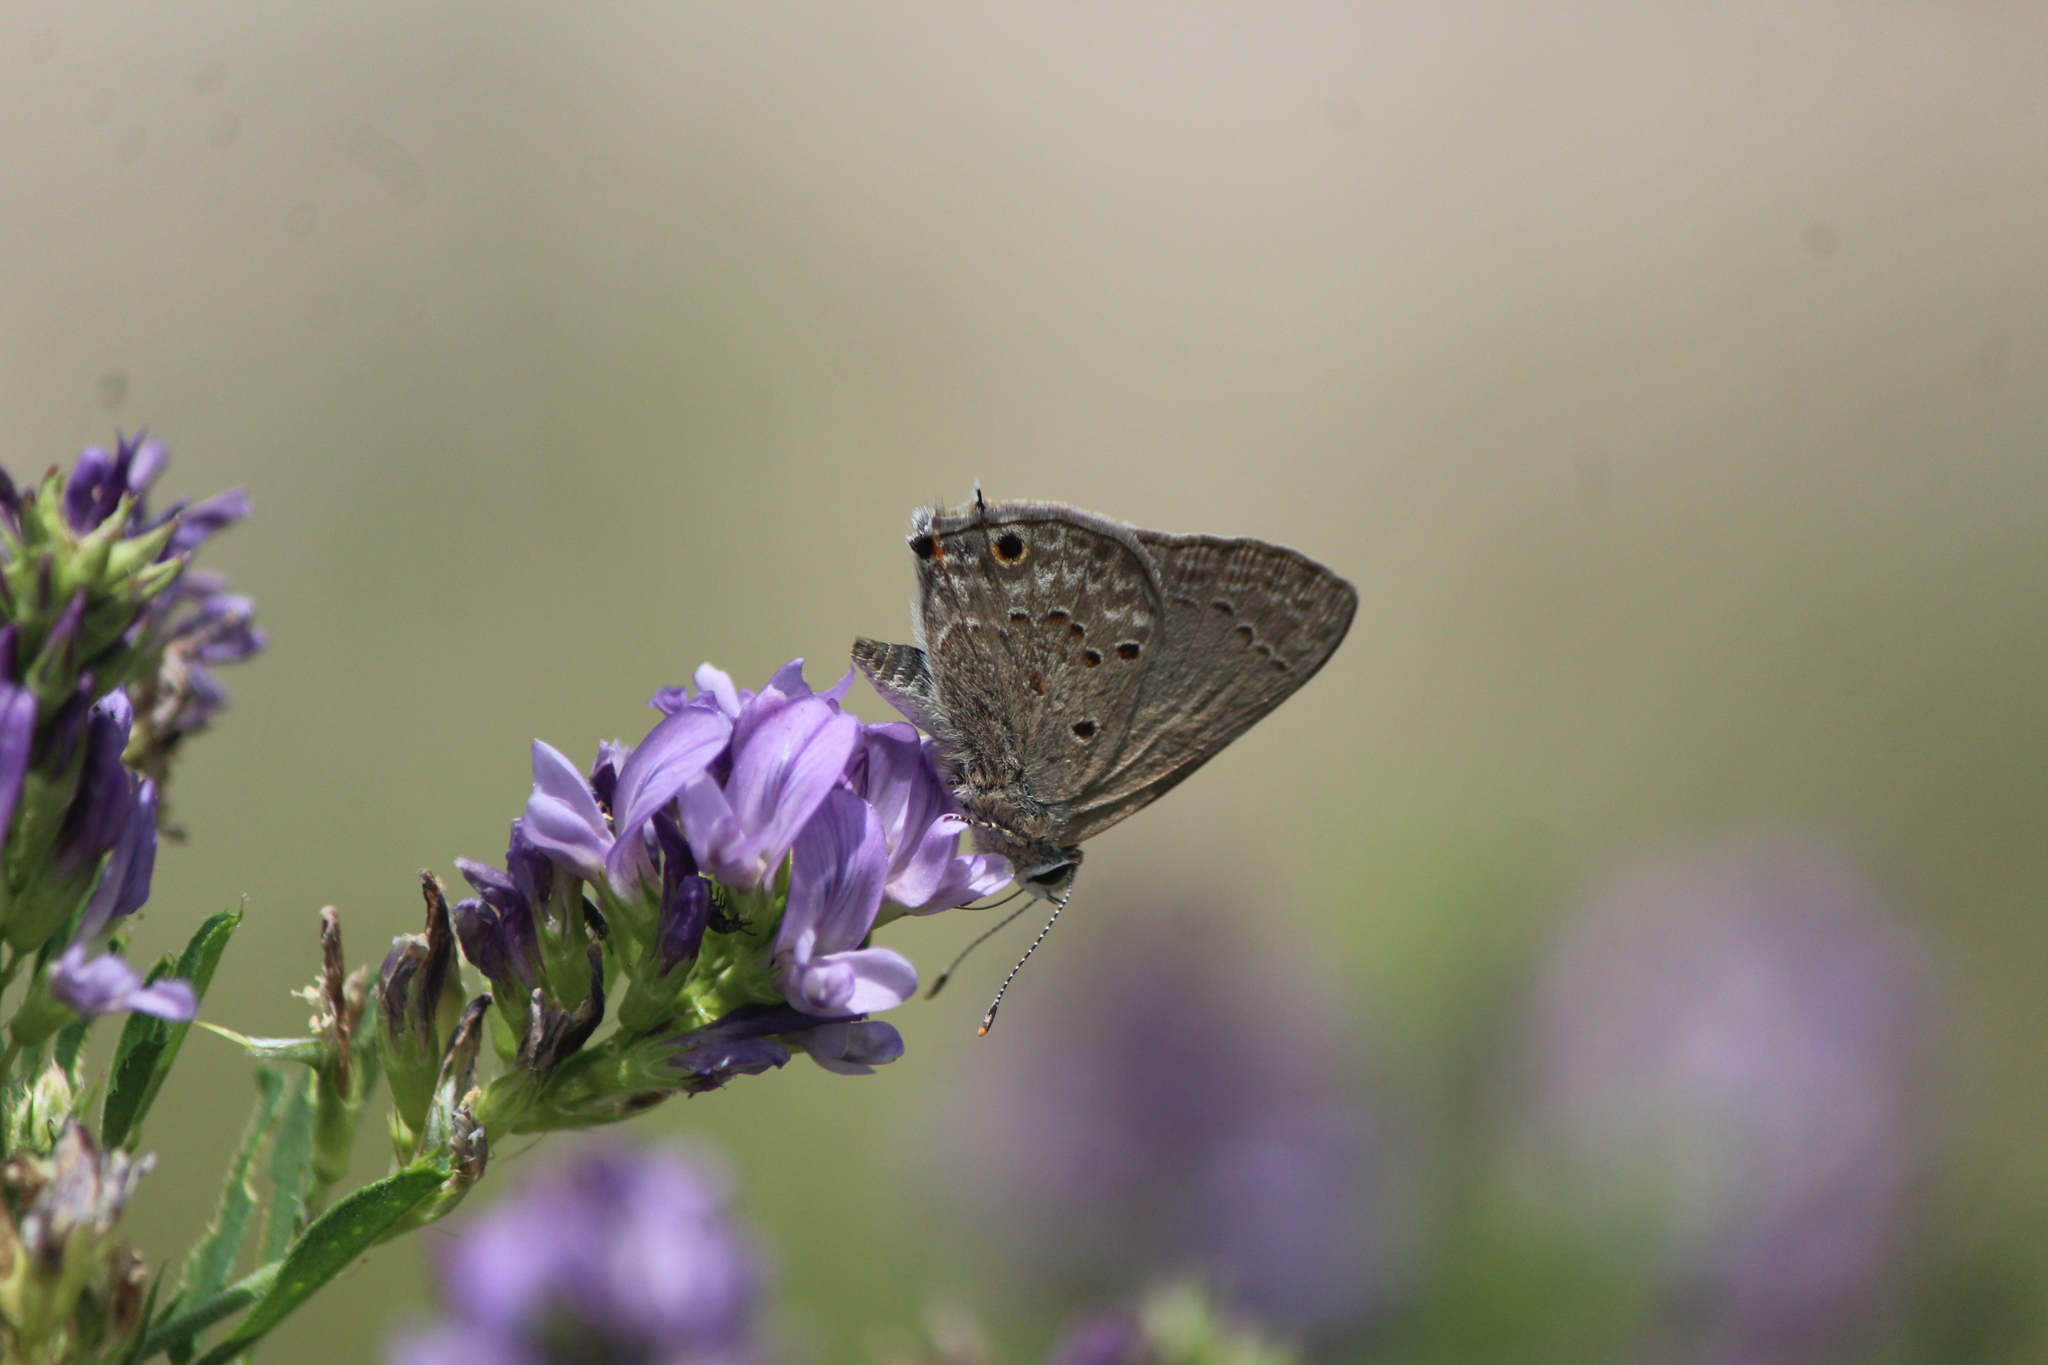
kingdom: Animalia
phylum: Arthropoda
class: Insecta
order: Lepidoptera
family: Lycaenidae
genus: Callicista
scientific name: Callicista columella
